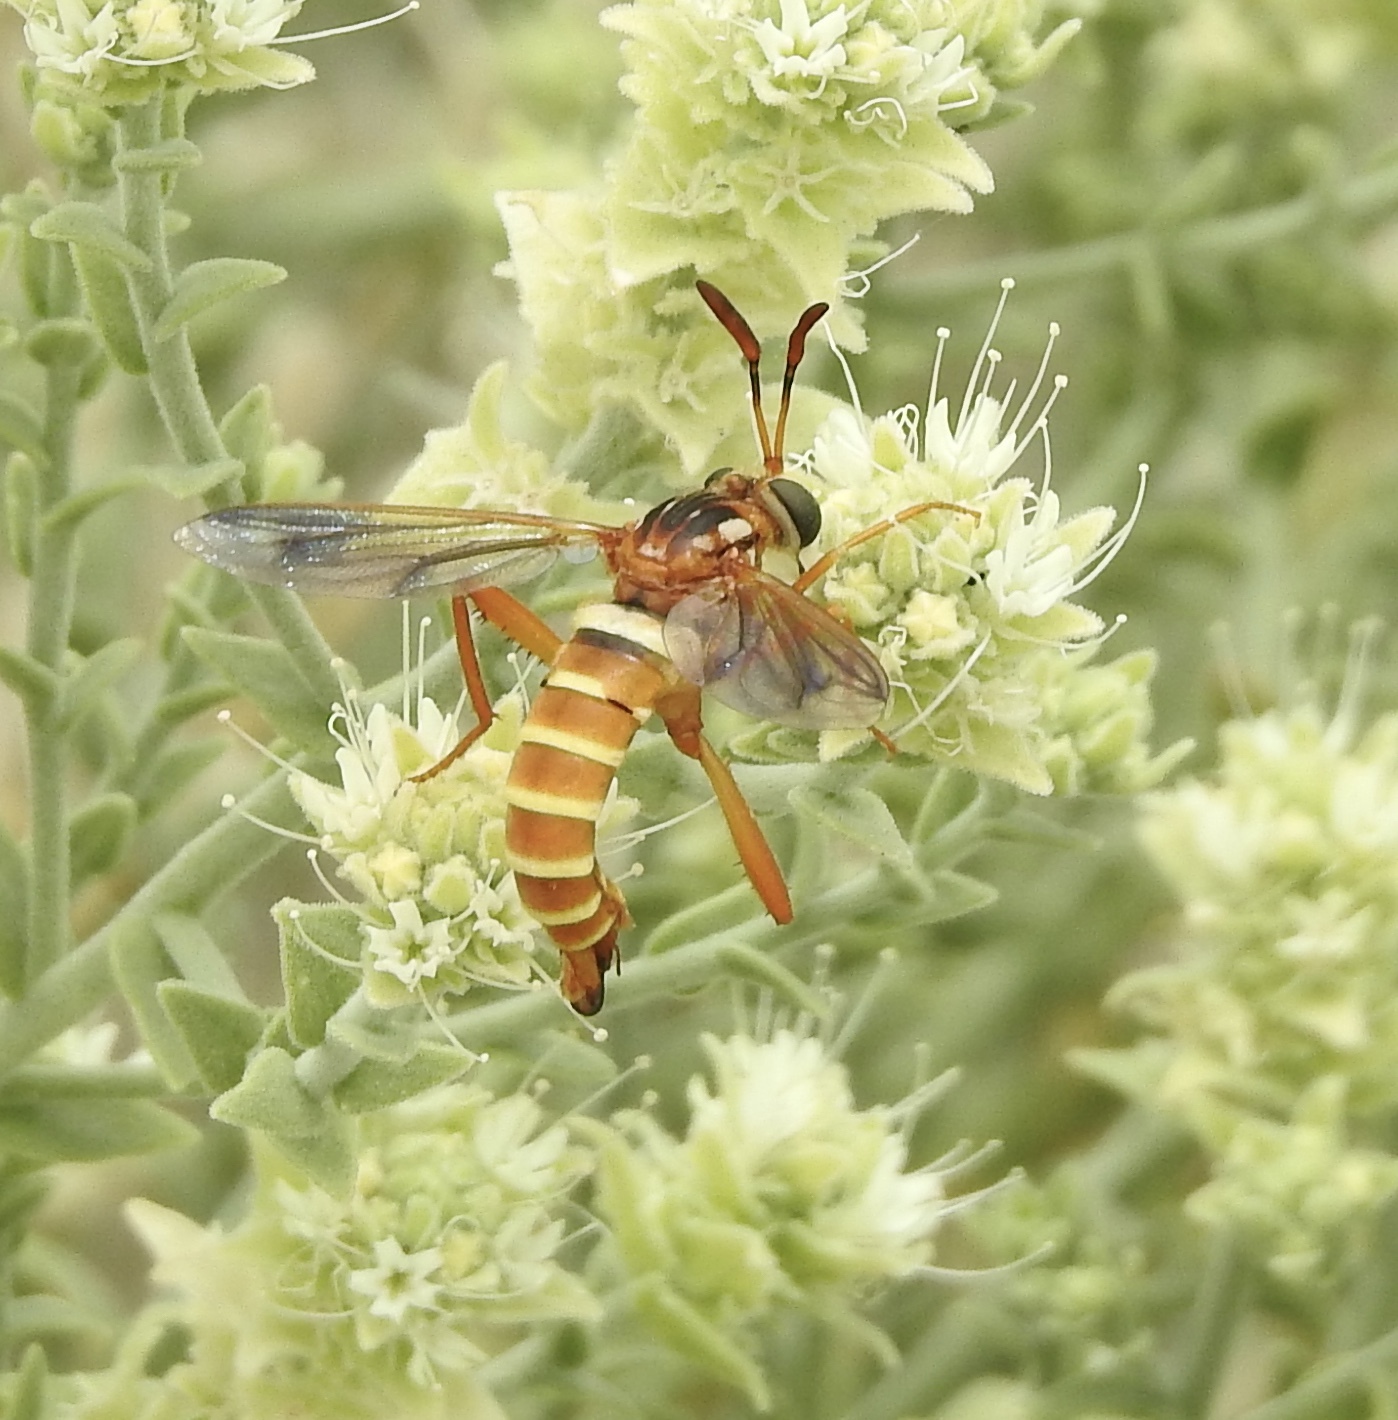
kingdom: Animalia
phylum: Arthropoda
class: Insecta
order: Diptera
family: Mydidae
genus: Opomydas
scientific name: Opomydas townsendi
